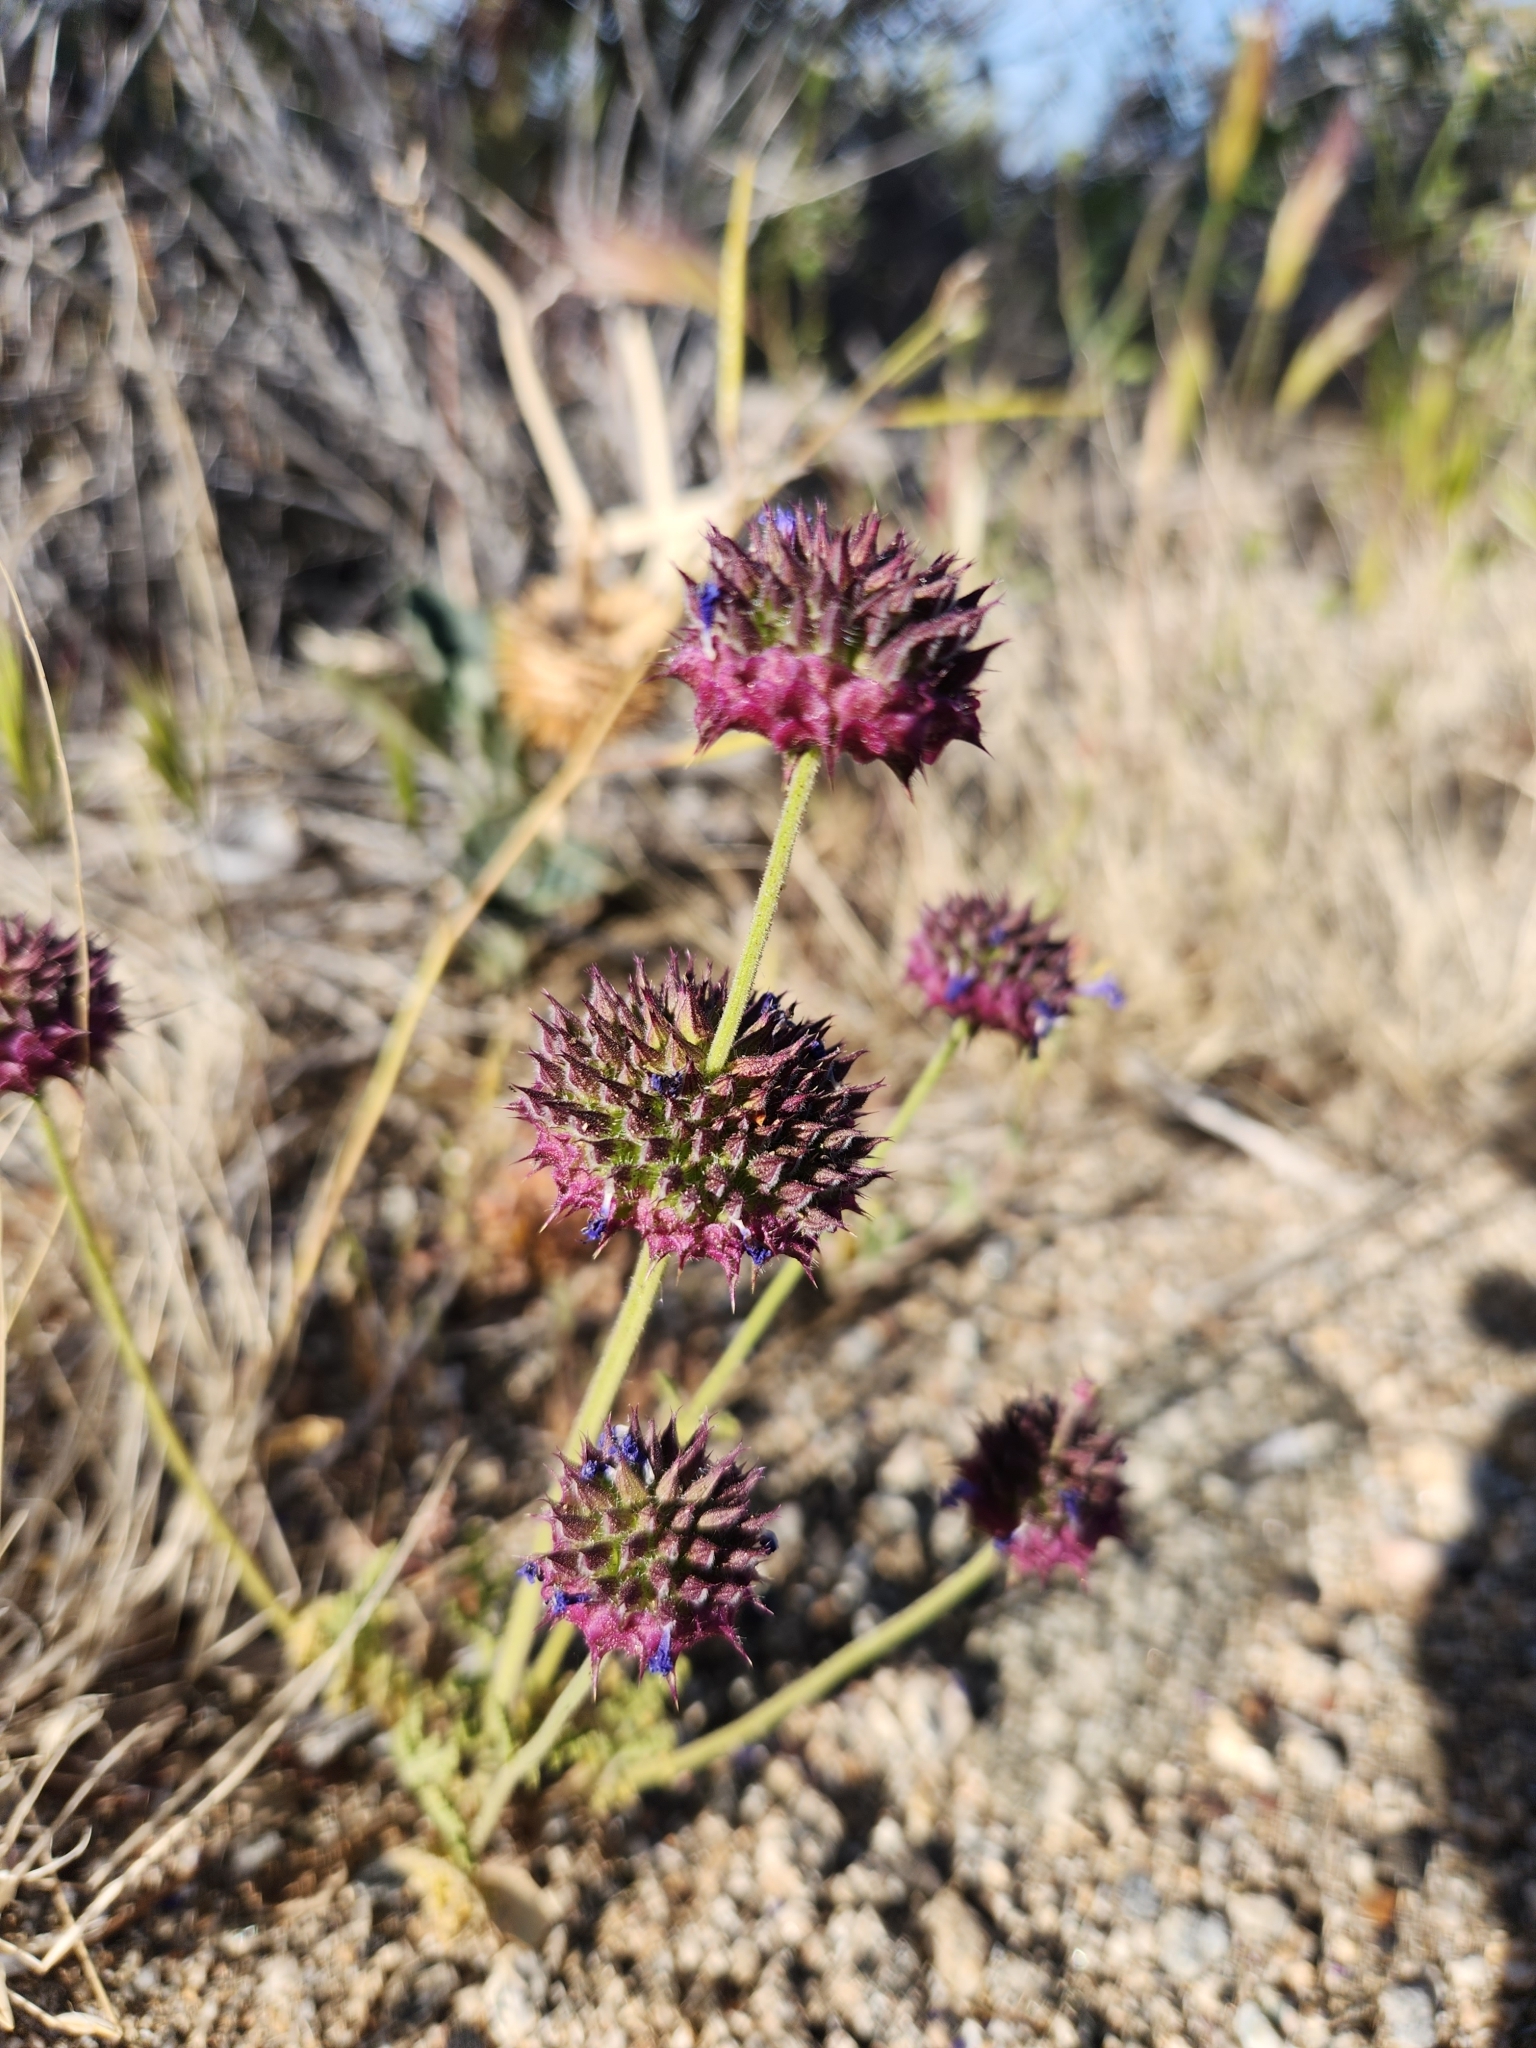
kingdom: Plantae
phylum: Tracheophyta
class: Magnoliopsida
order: Lamiales
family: Lamiaceae
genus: Salvia
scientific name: Salvia columbariae
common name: Chia
